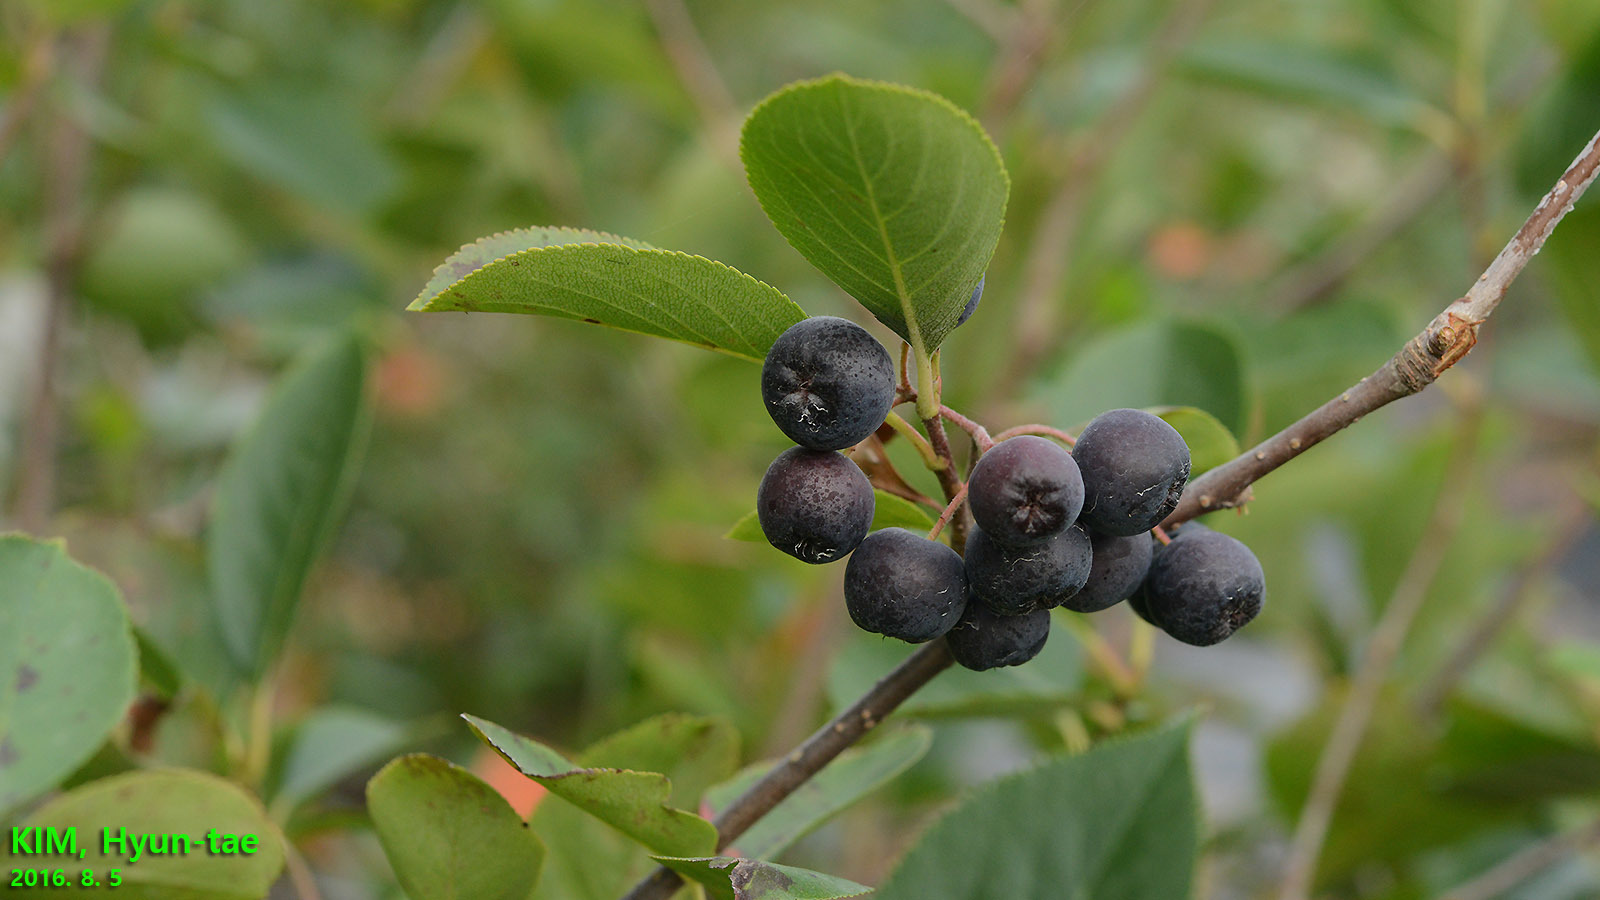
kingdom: Plantae
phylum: Tracheophyta
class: Magnoliopsida
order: Rosales
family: Rosaceae
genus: Aronia
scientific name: Aronia melanocarpa
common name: Black chokeberry
